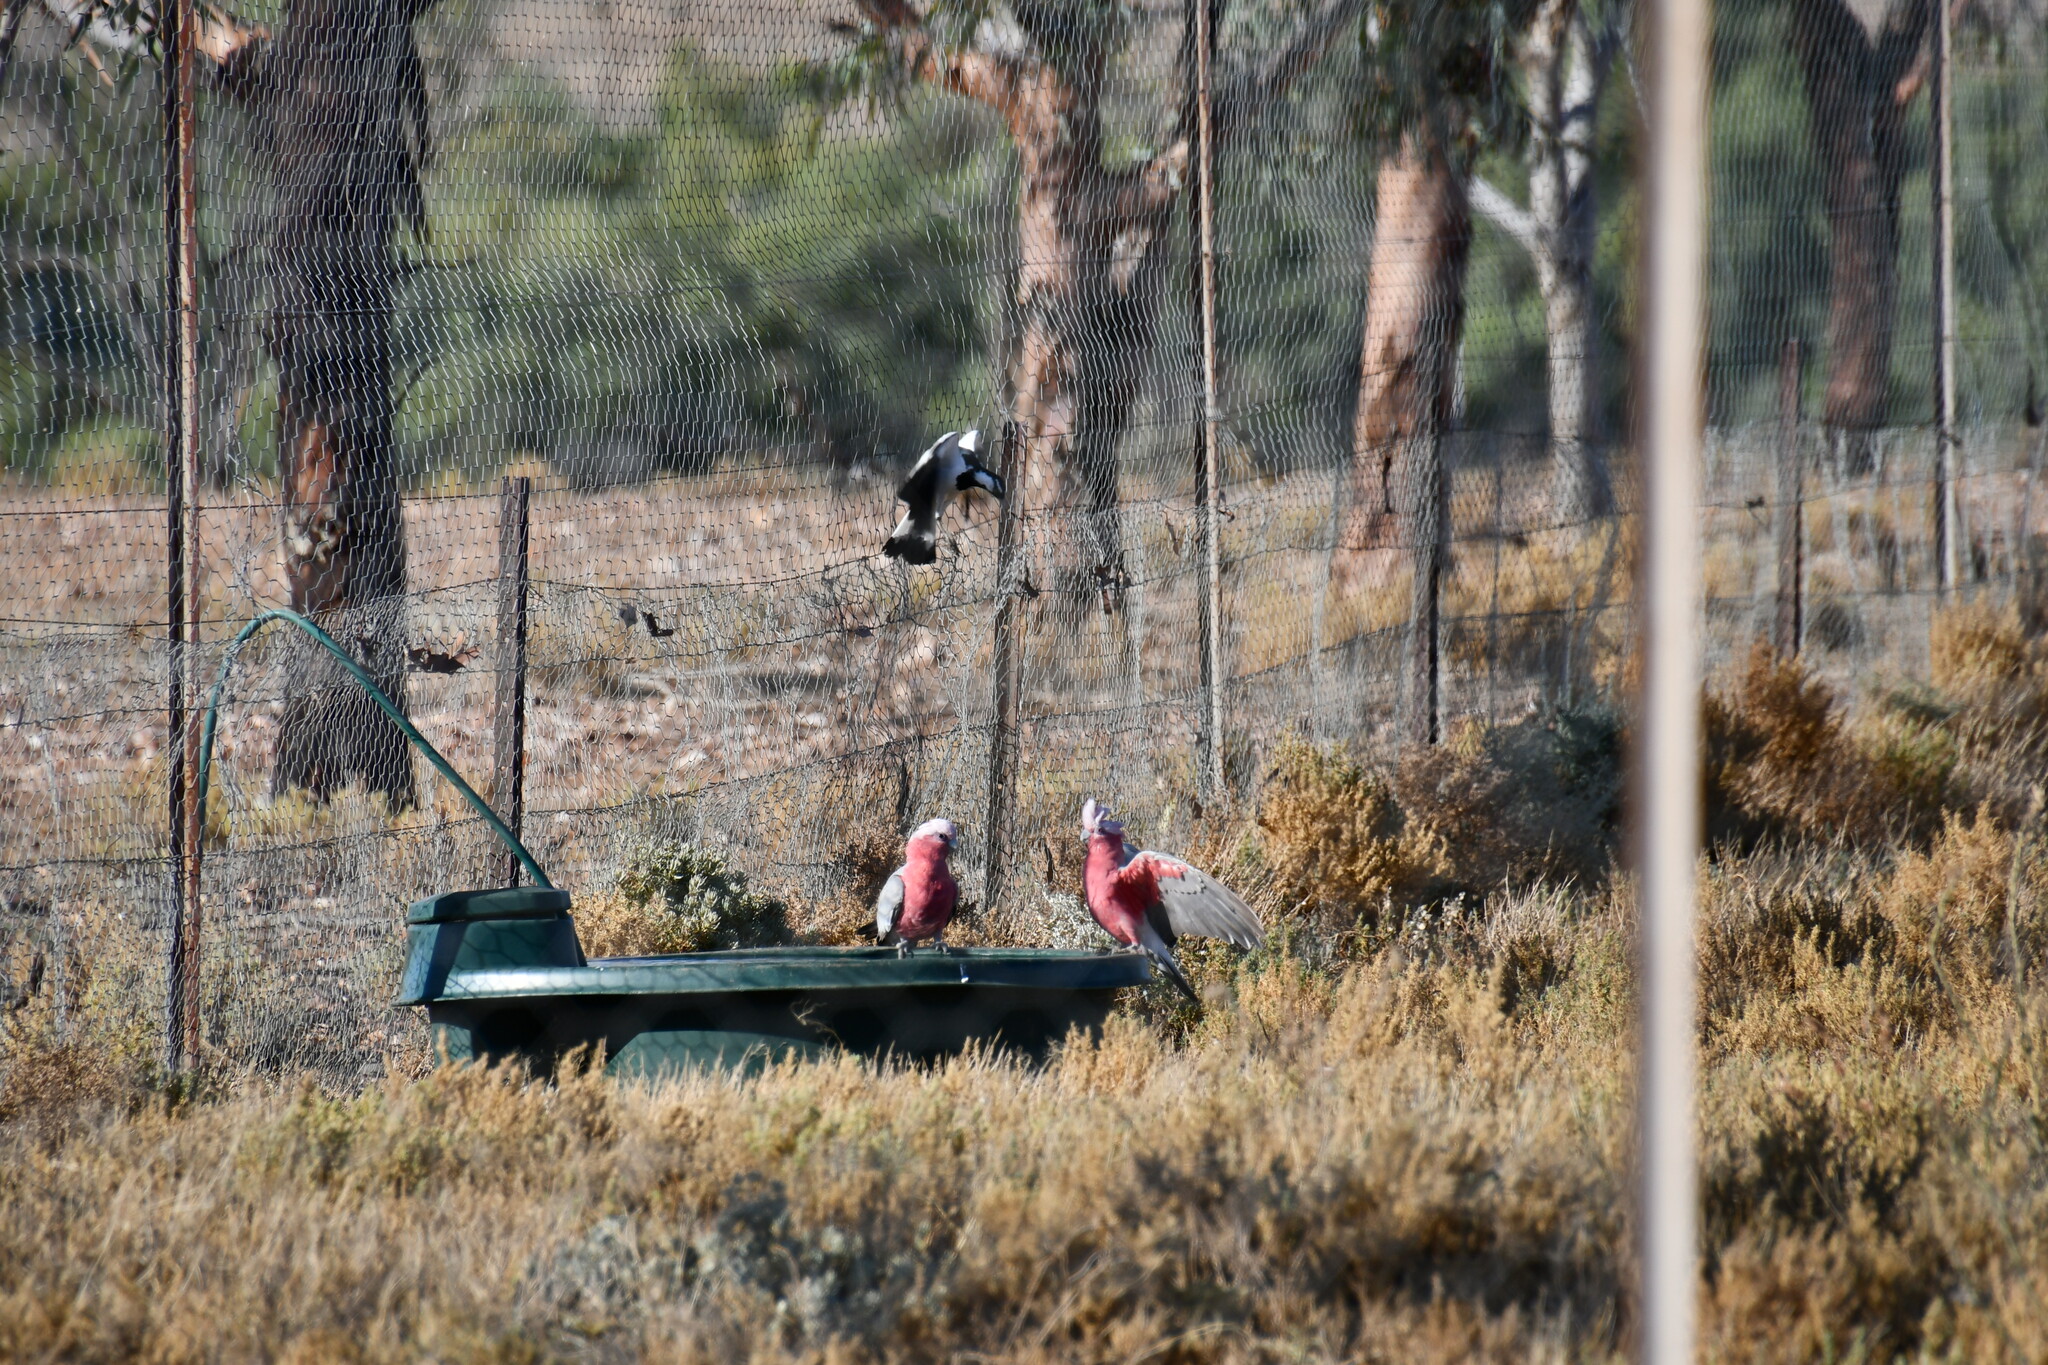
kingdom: Animalia
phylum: Chordata
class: Aves
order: Psittaciformes
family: Psittacidae
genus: Eolophus
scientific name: Eolophus roseicapilla
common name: Galah
